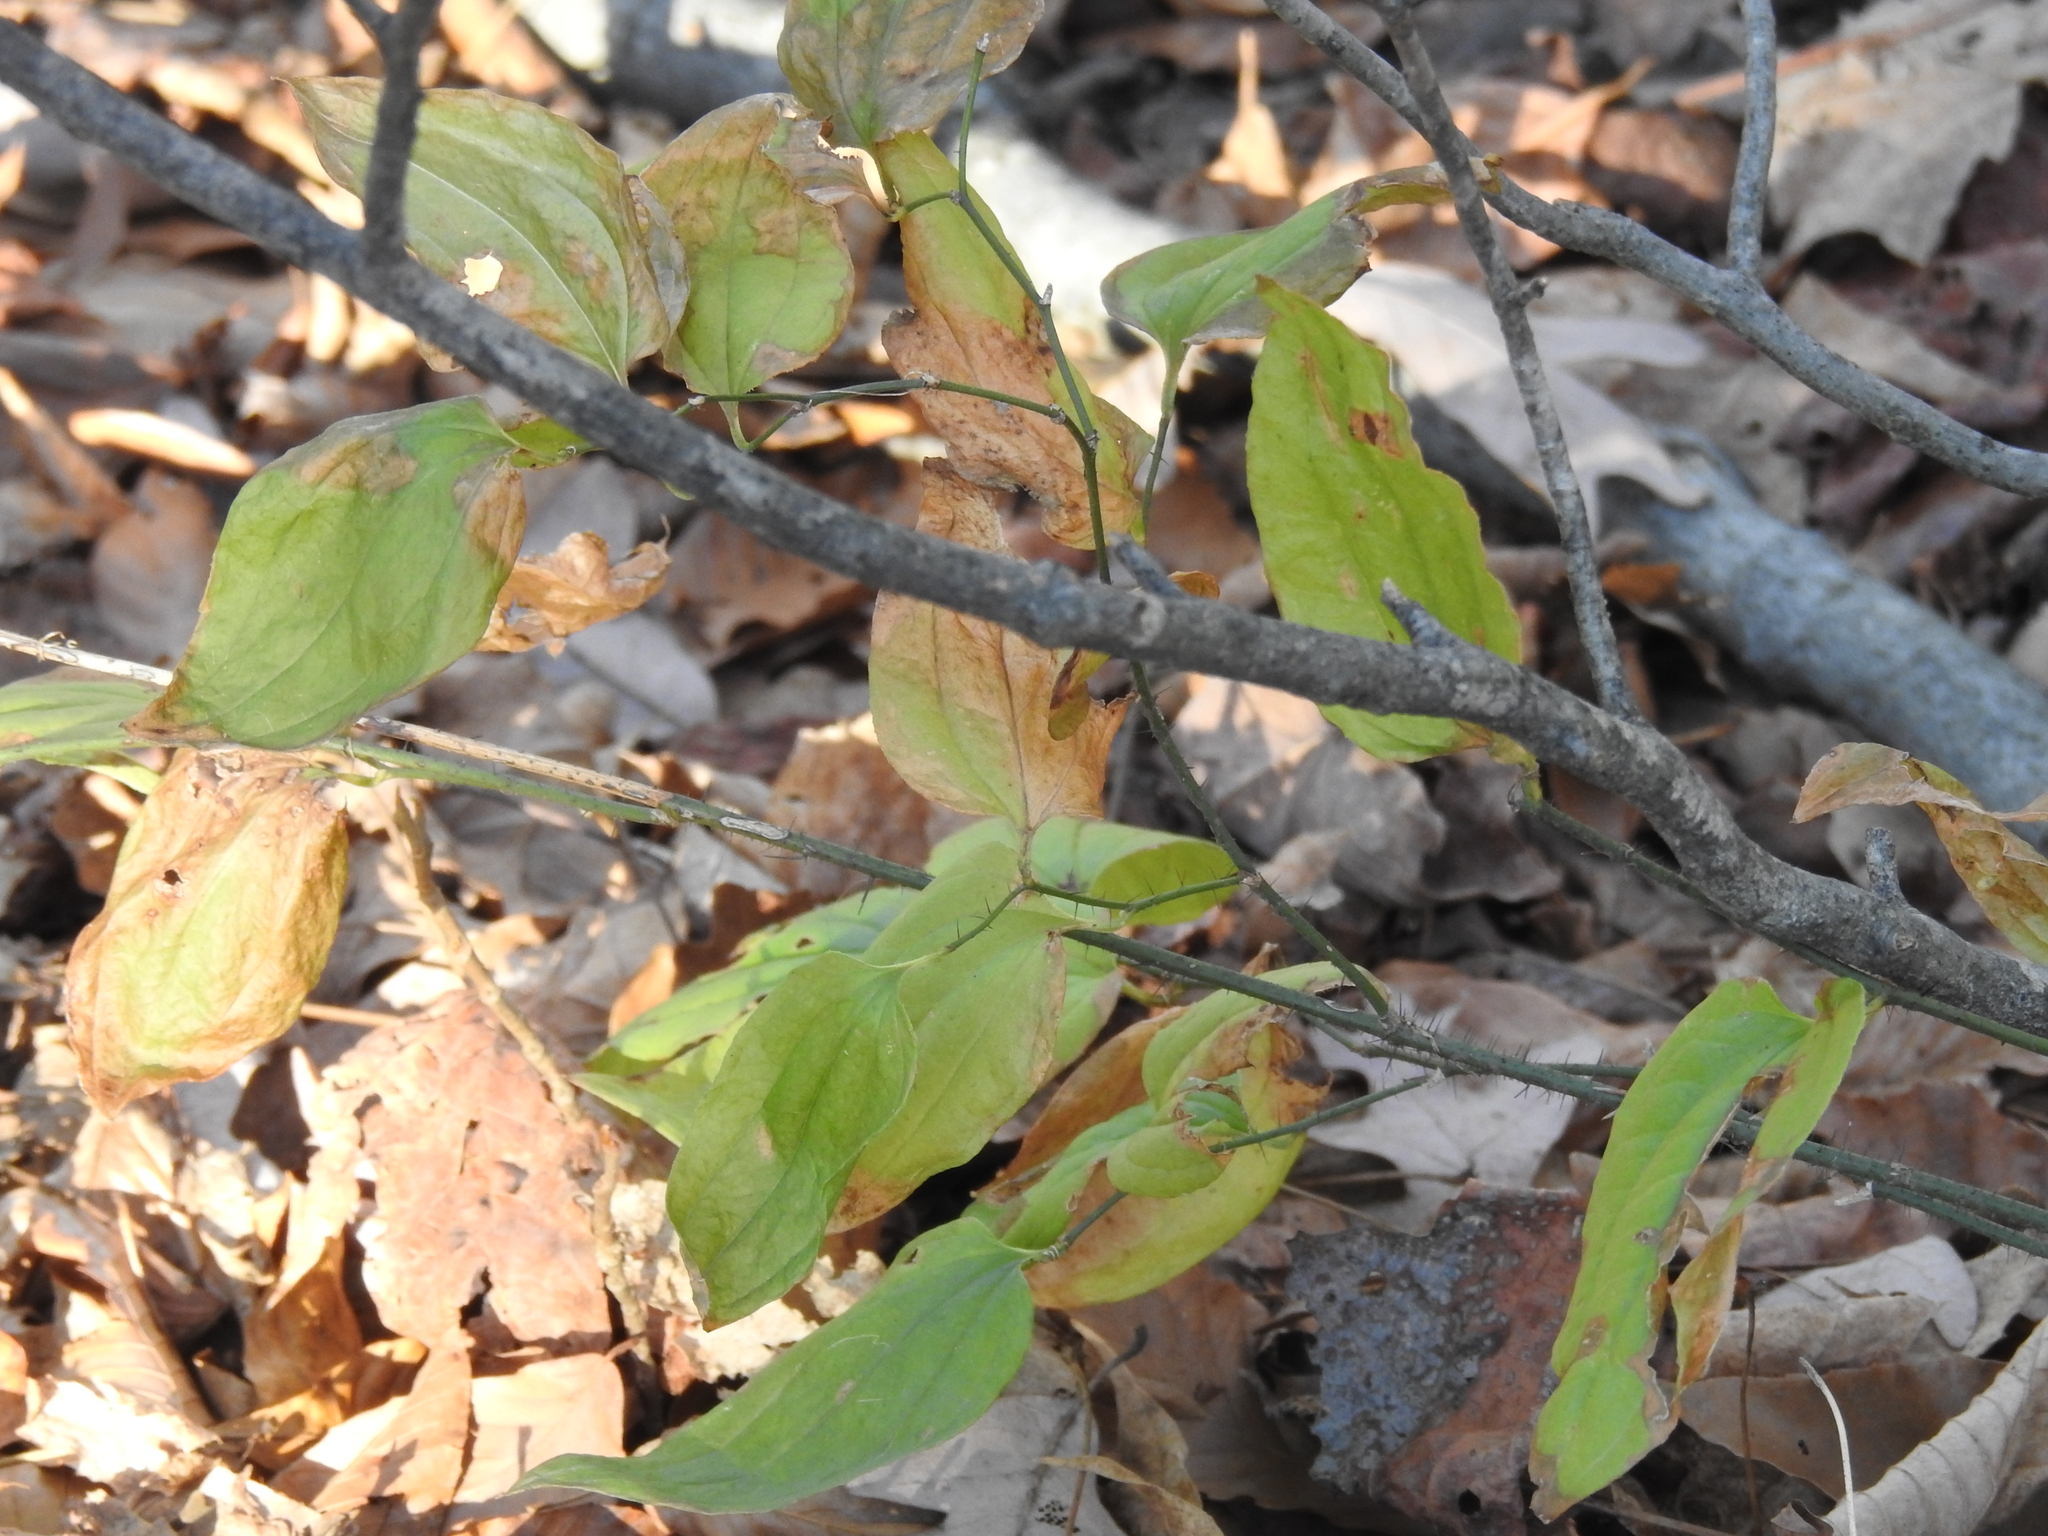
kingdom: Plantae
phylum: Tracheophyta
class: Liliopsida
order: Liliales
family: Smilacaceae
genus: Smilax
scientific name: Smilax tamnoides
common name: Hellfetter
